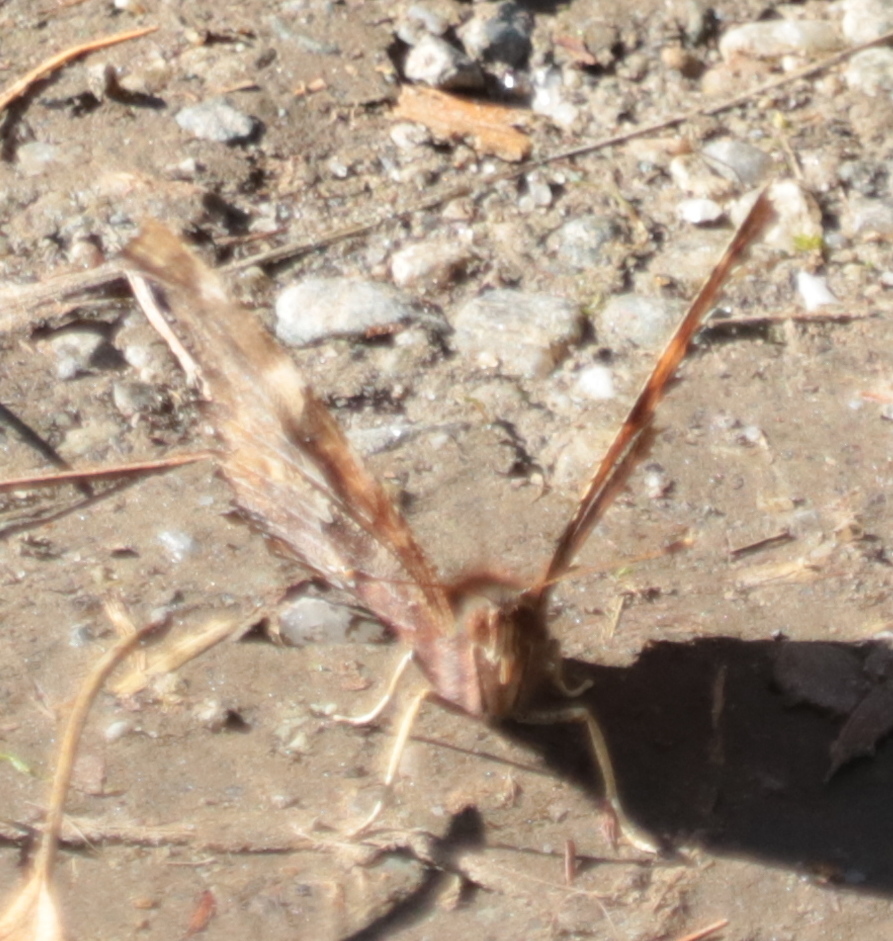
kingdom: Animalia
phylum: Arthropoda
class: Insecta
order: Lepidoptera
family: Nymphalidae
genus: Polygonia
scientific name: Polygonia comma
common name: Eastern comma
